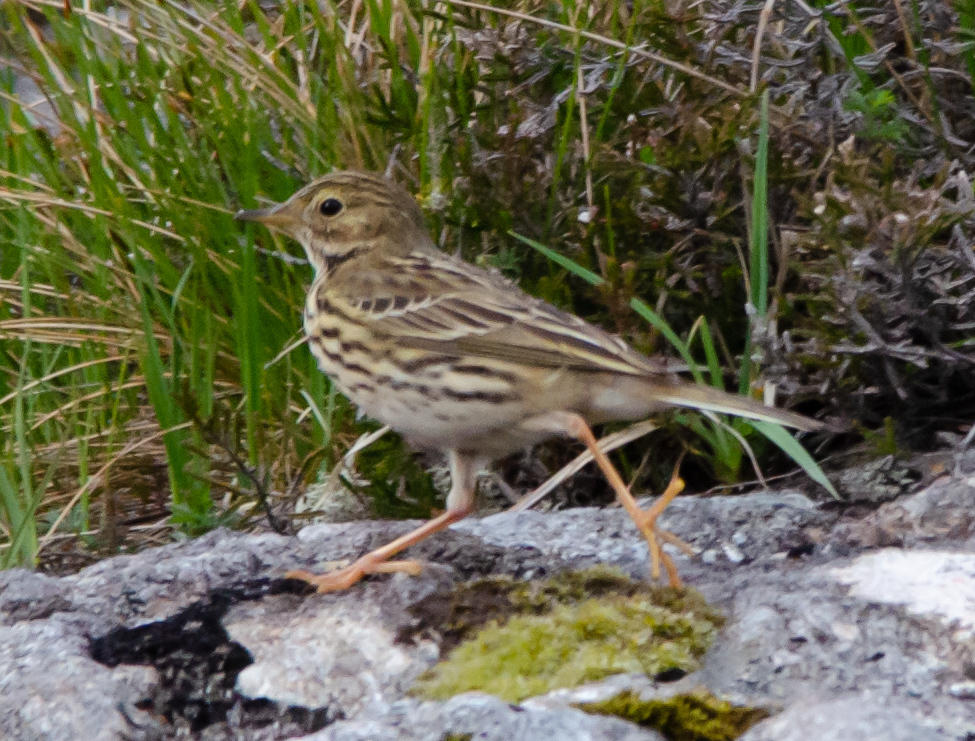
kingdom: Animalia
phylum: Chordata
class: Aves
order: Passeriformes
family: Motacillidae
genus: Anthus
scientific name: Anthus pratensis
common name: Meadow pipit
